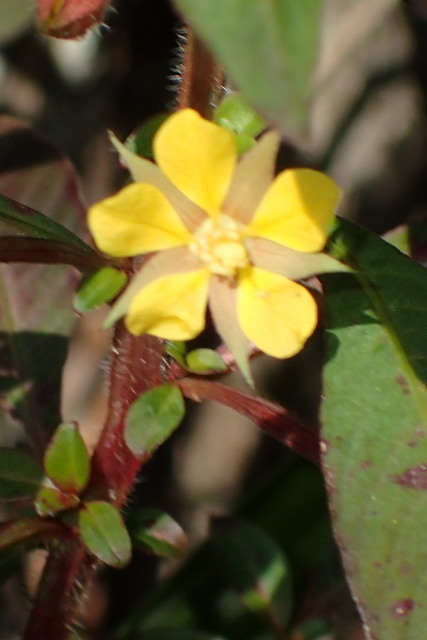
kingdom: Plantae
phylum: Tracheophyta
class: Magnoliopsida
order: Myrtales
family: Onagraceae
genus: Ludwigia
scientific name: Ludwigia leptocarpa
